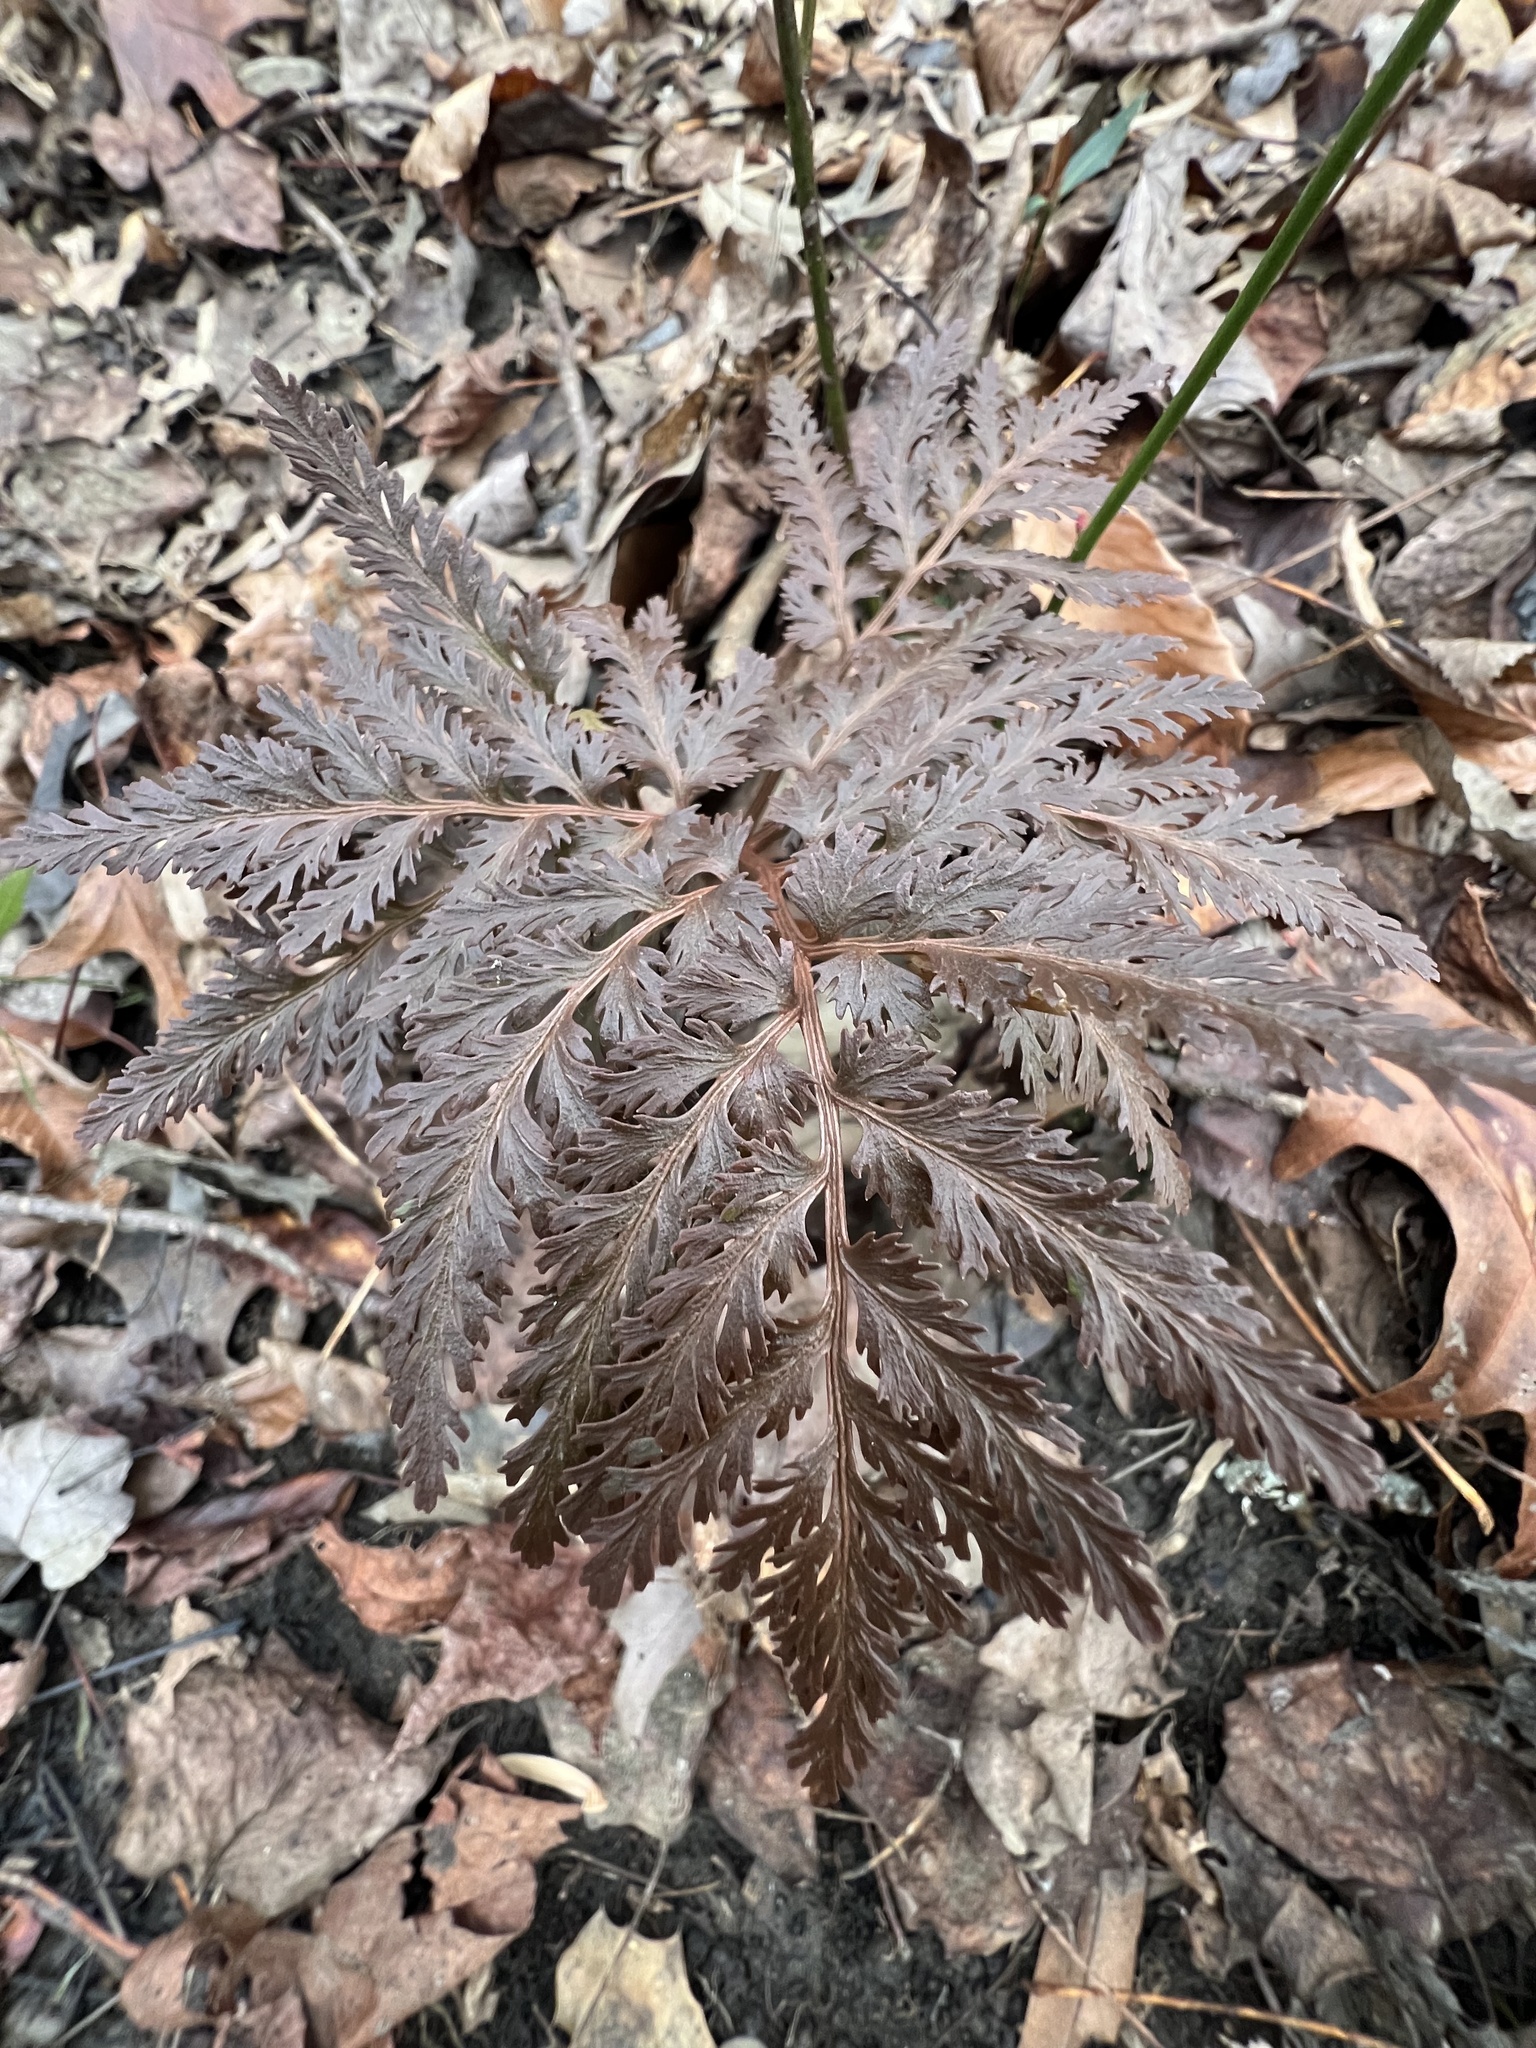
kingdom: Plantae
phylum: Tracheophyta
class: Polypodiopsida
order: Ophioglossales
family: Ophioglossaceae
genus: Sceptridium
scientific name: Sceptridium dissectum
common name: Cut-leaved grapefern
